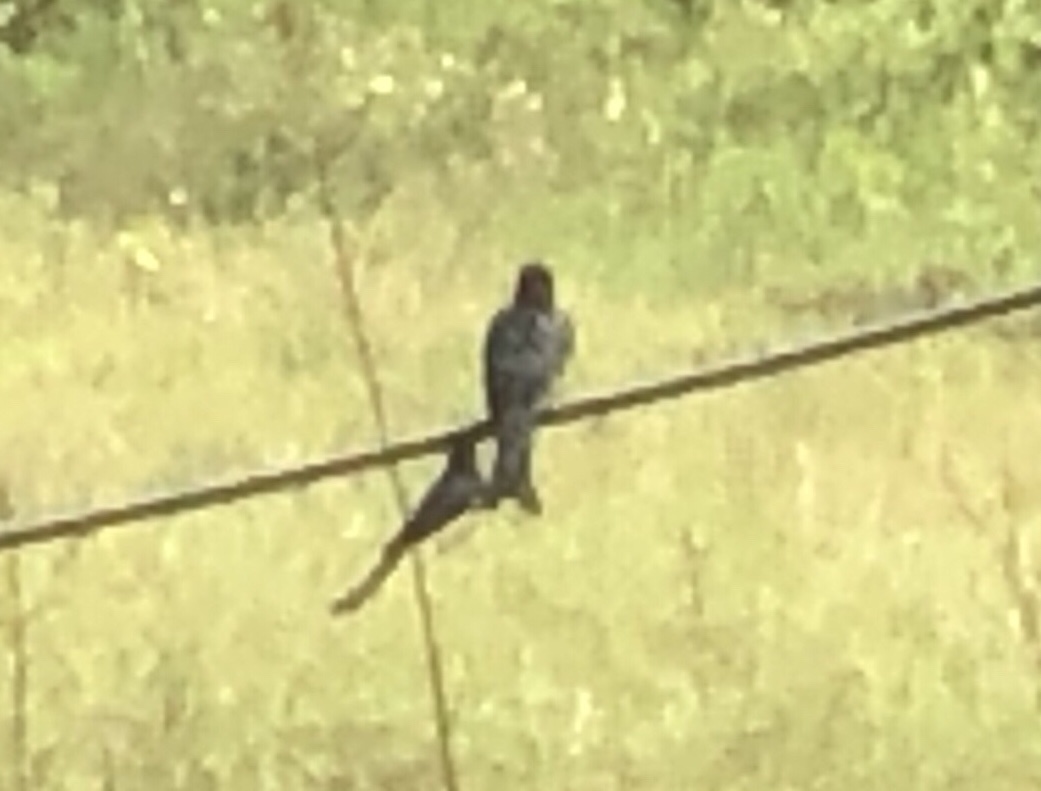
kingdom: Animalia
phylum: Chordata
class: Aves
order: Passeriformes
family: Dicruridae
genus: Dicrurus
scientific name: Dicrurus macrocercus
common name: Black drongo
